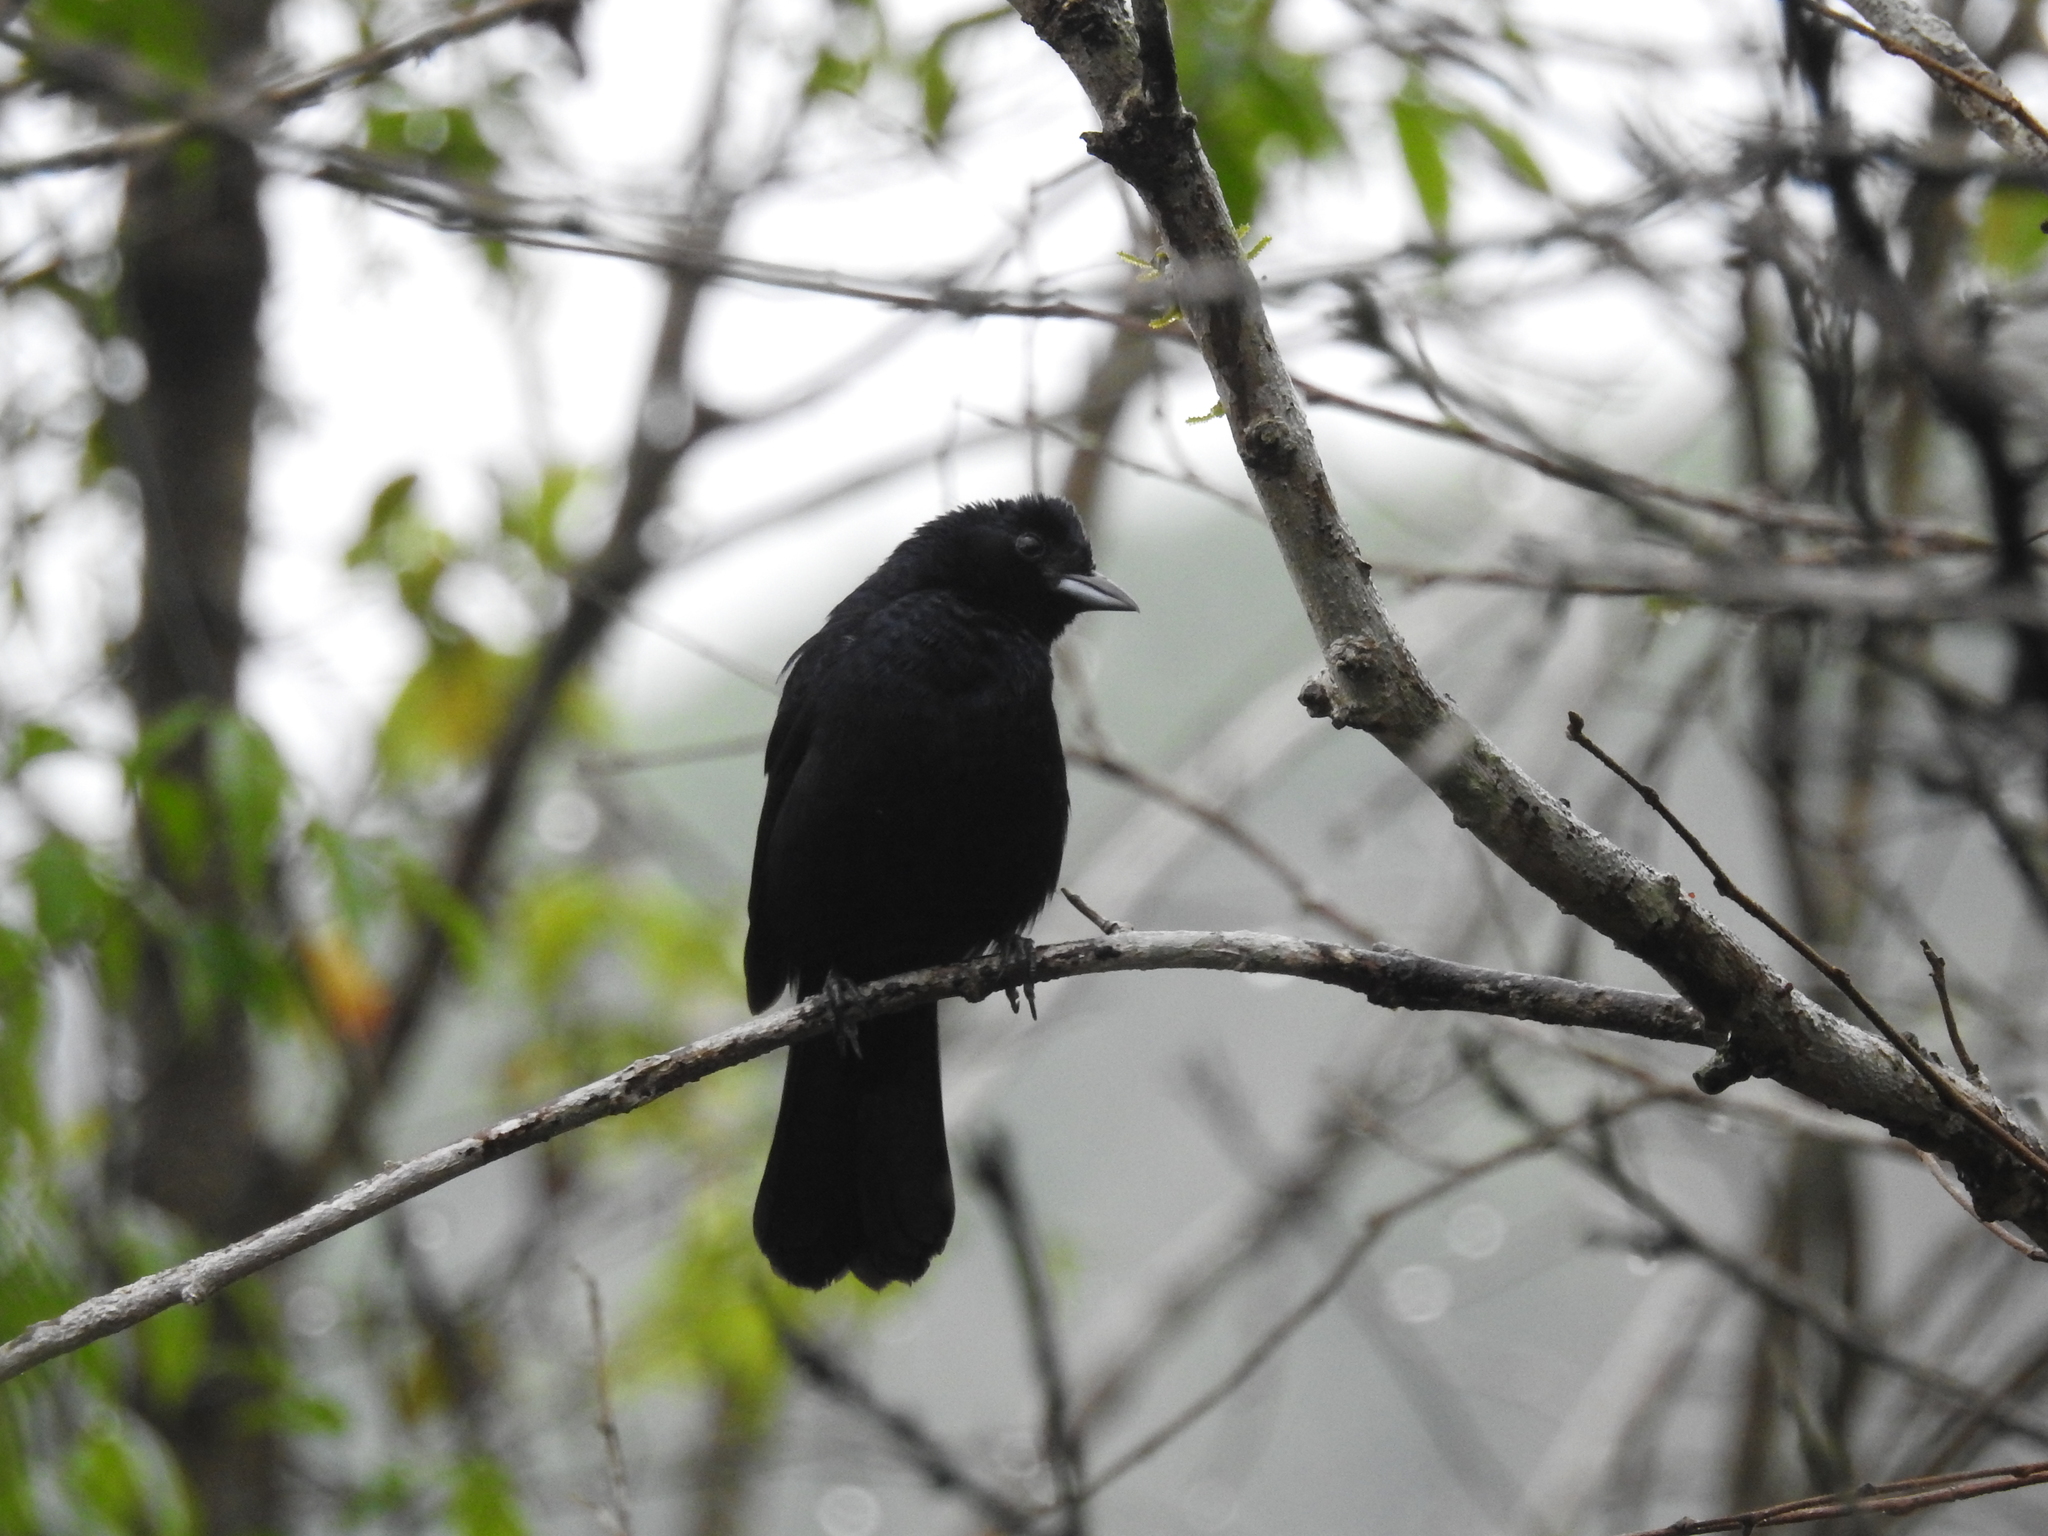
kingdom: Animalia
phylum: Chordata
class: Aves
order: Passeriformes
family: Thraupidae
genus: Tachyphonus
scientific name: Tachyphonus coronatus
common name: Ruby-crowned tanager
